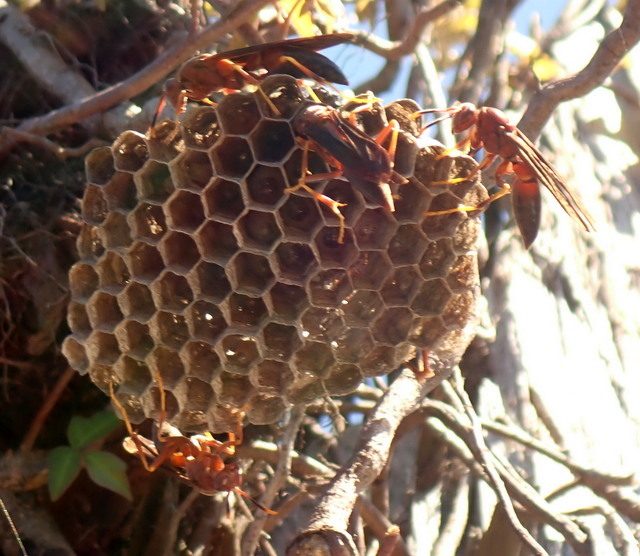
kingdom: Animalia
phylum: Arthropoda
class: Insecta
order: Hymenoptera
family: Eumenidae
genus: Polistes
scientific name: Polistes annularis
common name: Ringed paper wasp
